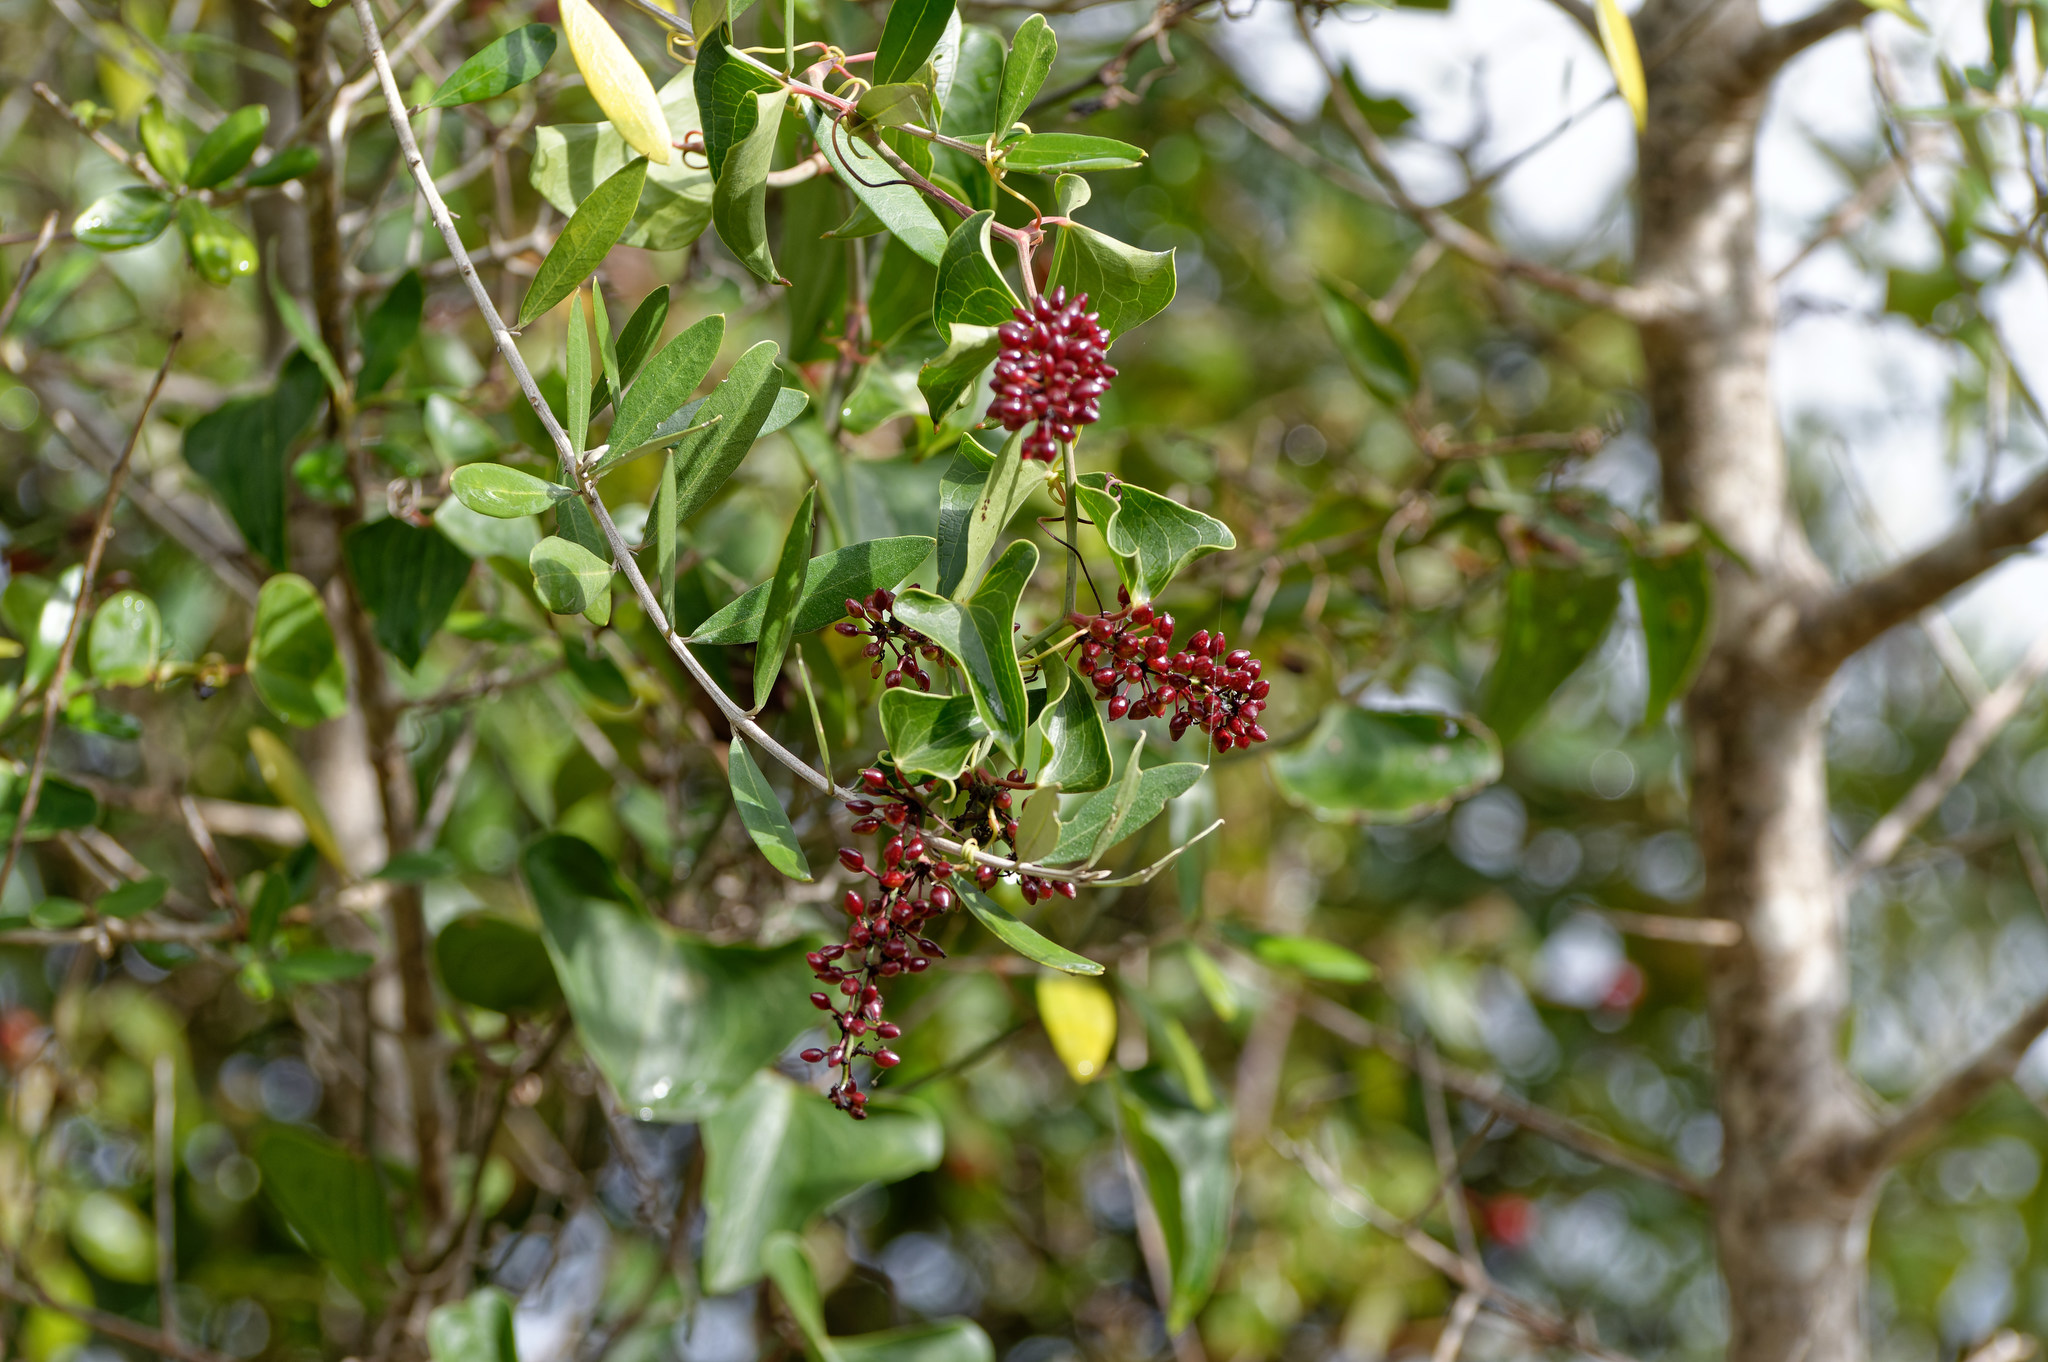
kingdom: Plantae
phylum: Tracheophyta
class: Liliopsida
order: Liliales
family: Smilacaceae
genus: Smilax
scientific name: Smilax aspera
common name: Common smilax
